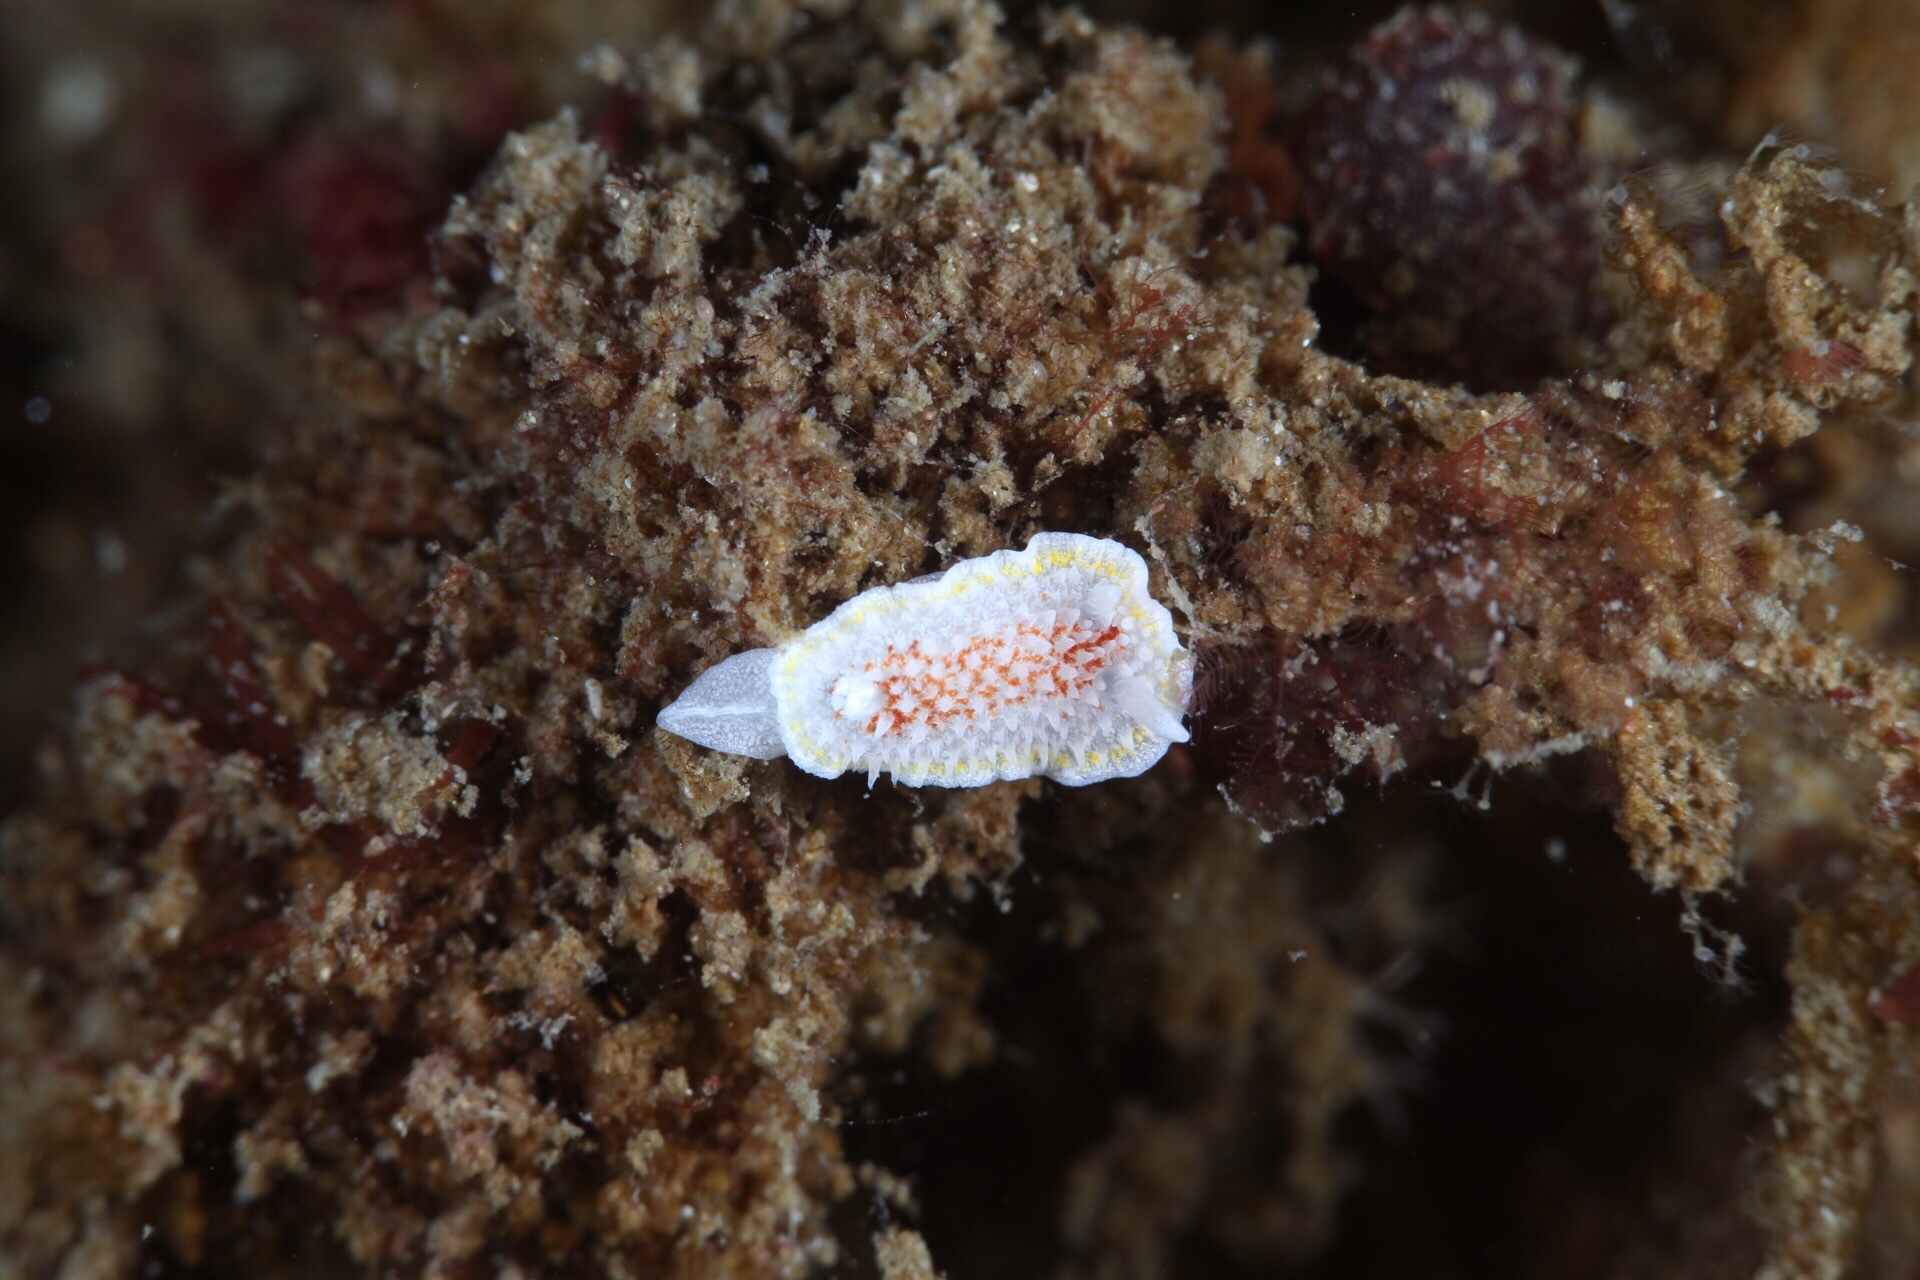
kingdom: Animalia
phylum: Mollusca
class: Gastropoda
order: Nudibranchia
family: Calycidorididae
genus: Diaphorodoris
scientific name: Diaphorodoris luteocincta
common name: Fried egg nudibranch
